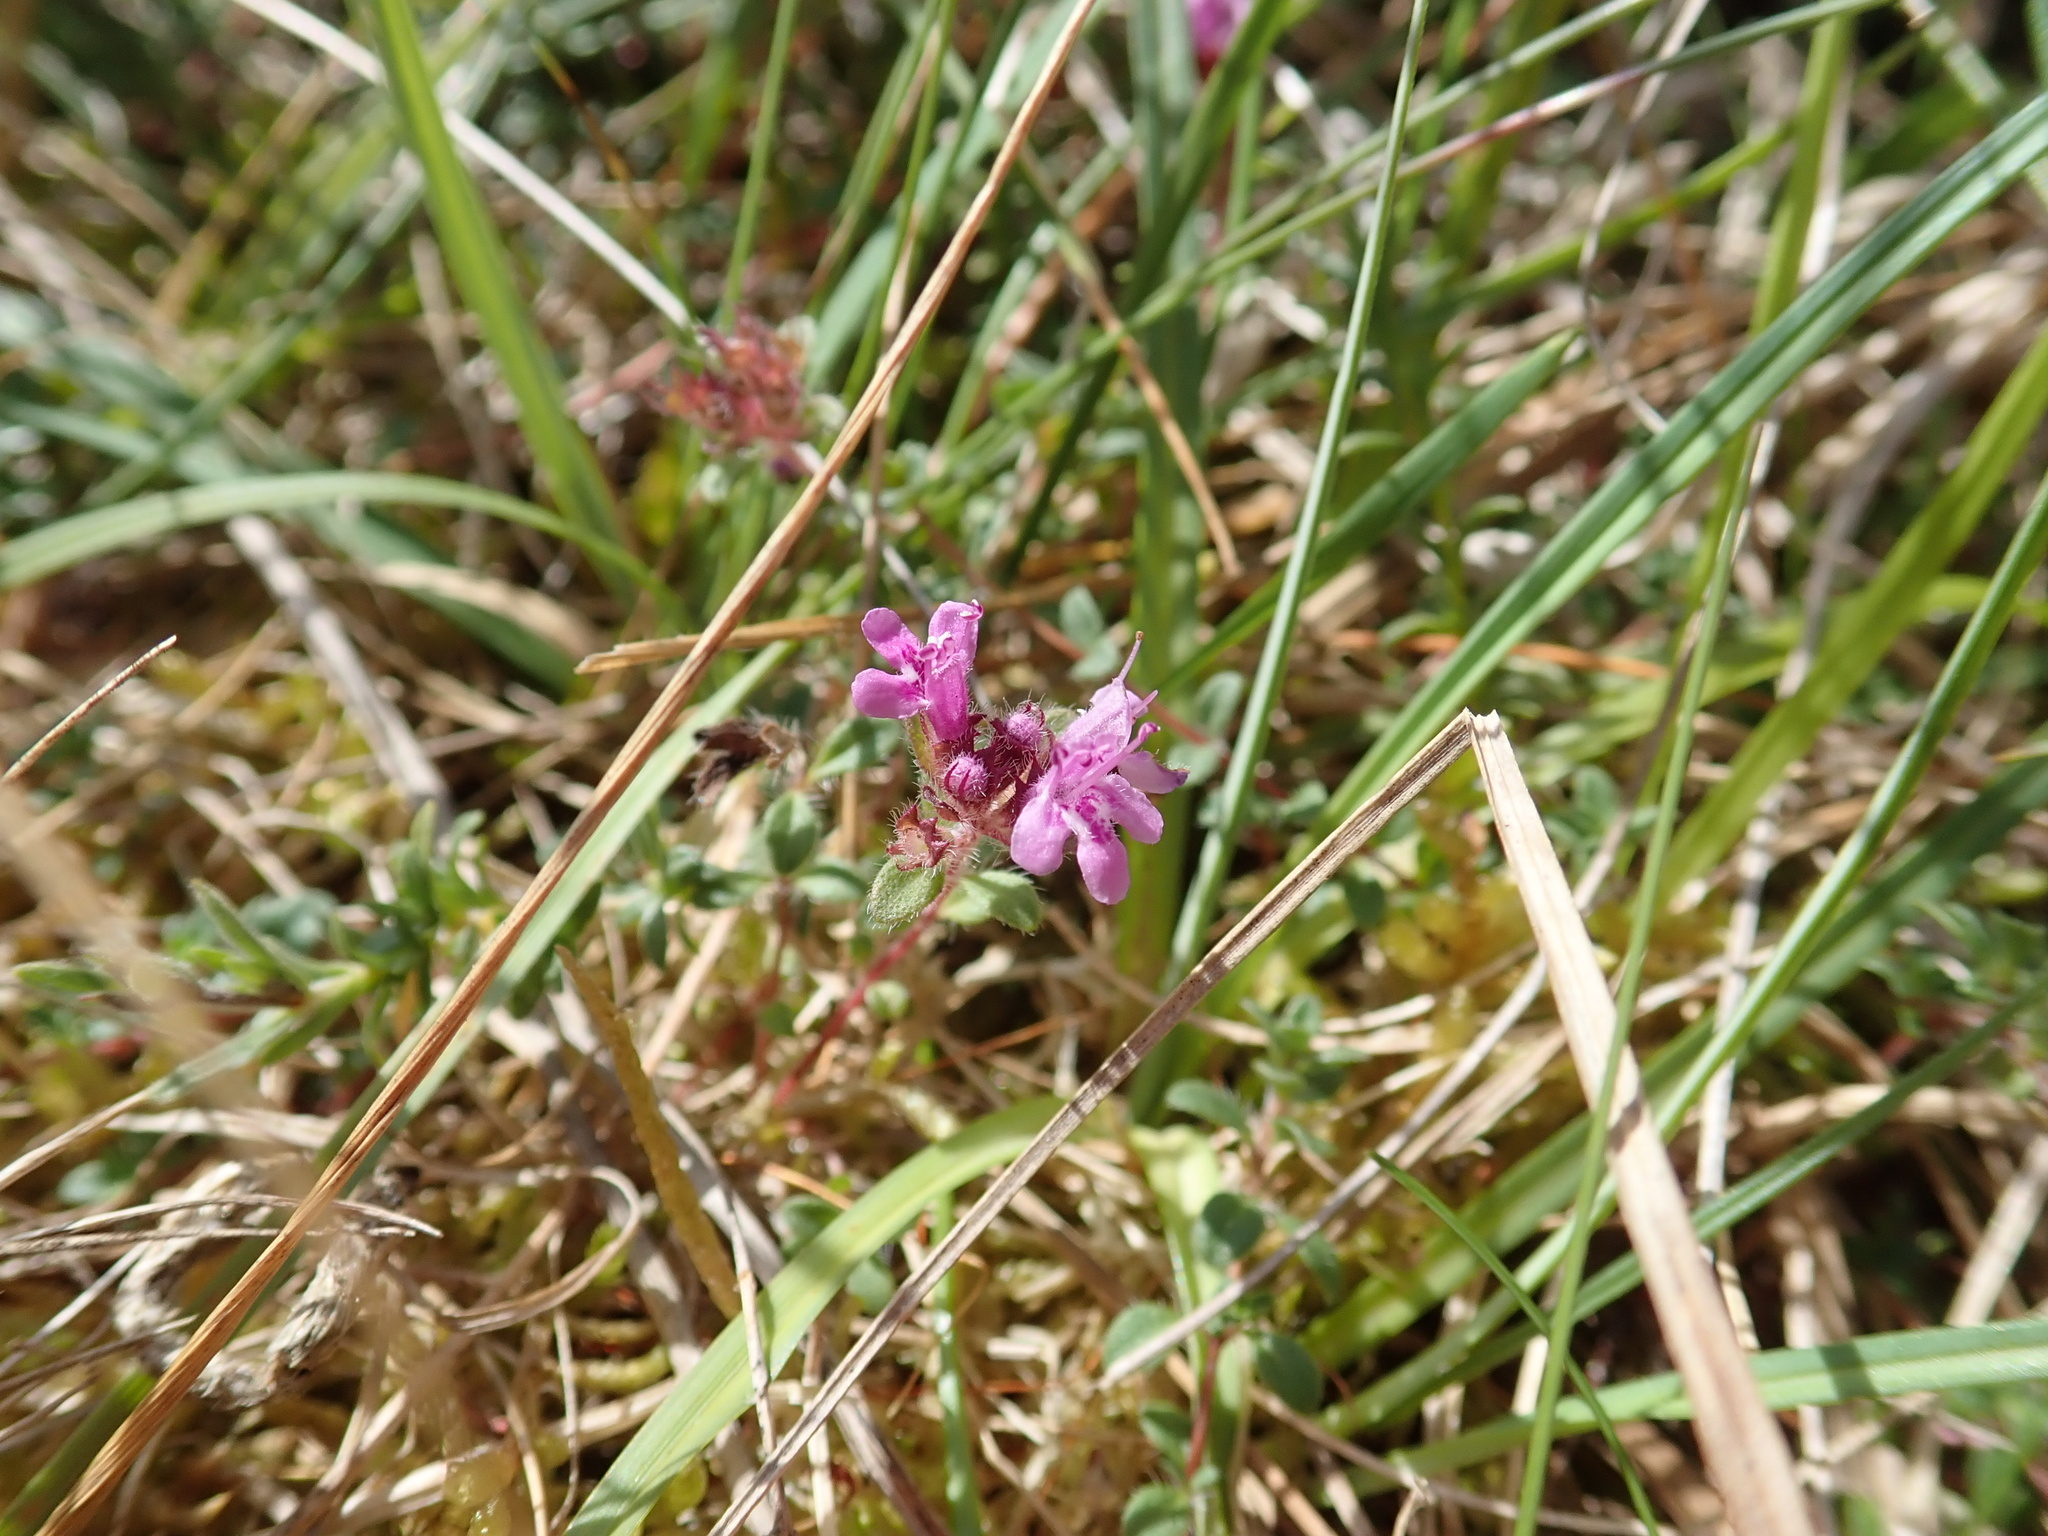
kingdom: Plantae
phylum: Tracheophyta
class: Magnoliopsida
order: Lamiales
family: Lamiaceae
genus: Thymus
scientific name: Thymus praecox
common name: Wild thyme
